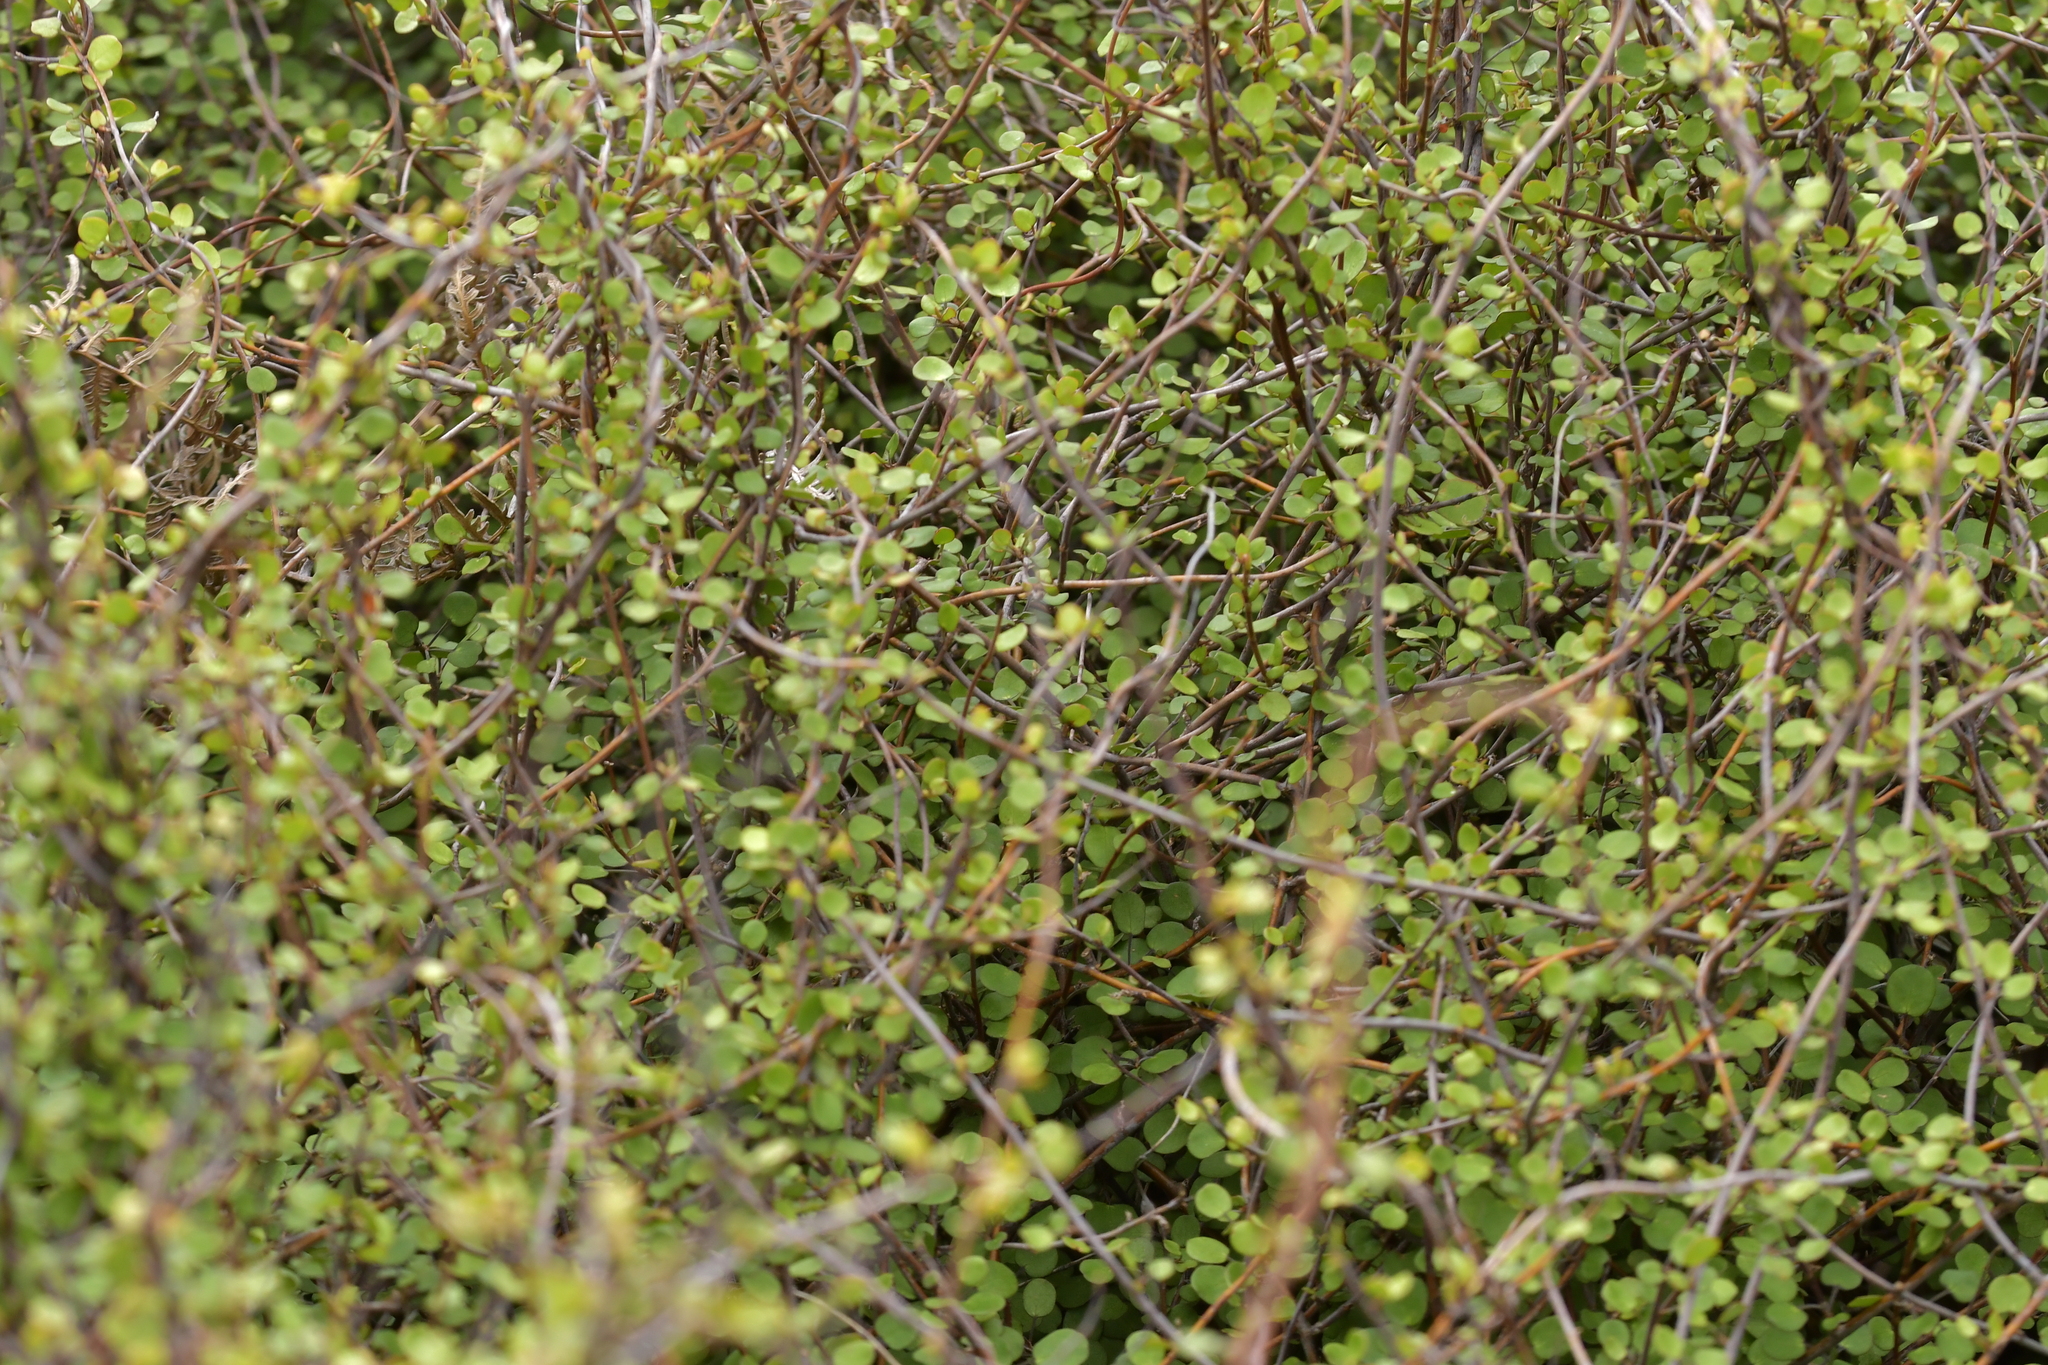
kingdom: Plantae
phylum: Tracheophyta
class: Magnoliopsida
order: Caryophyllales
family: Polygonaceae
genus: Muehlenbeckia
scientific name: Muehlenbeckia complexa
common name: Wireplant
